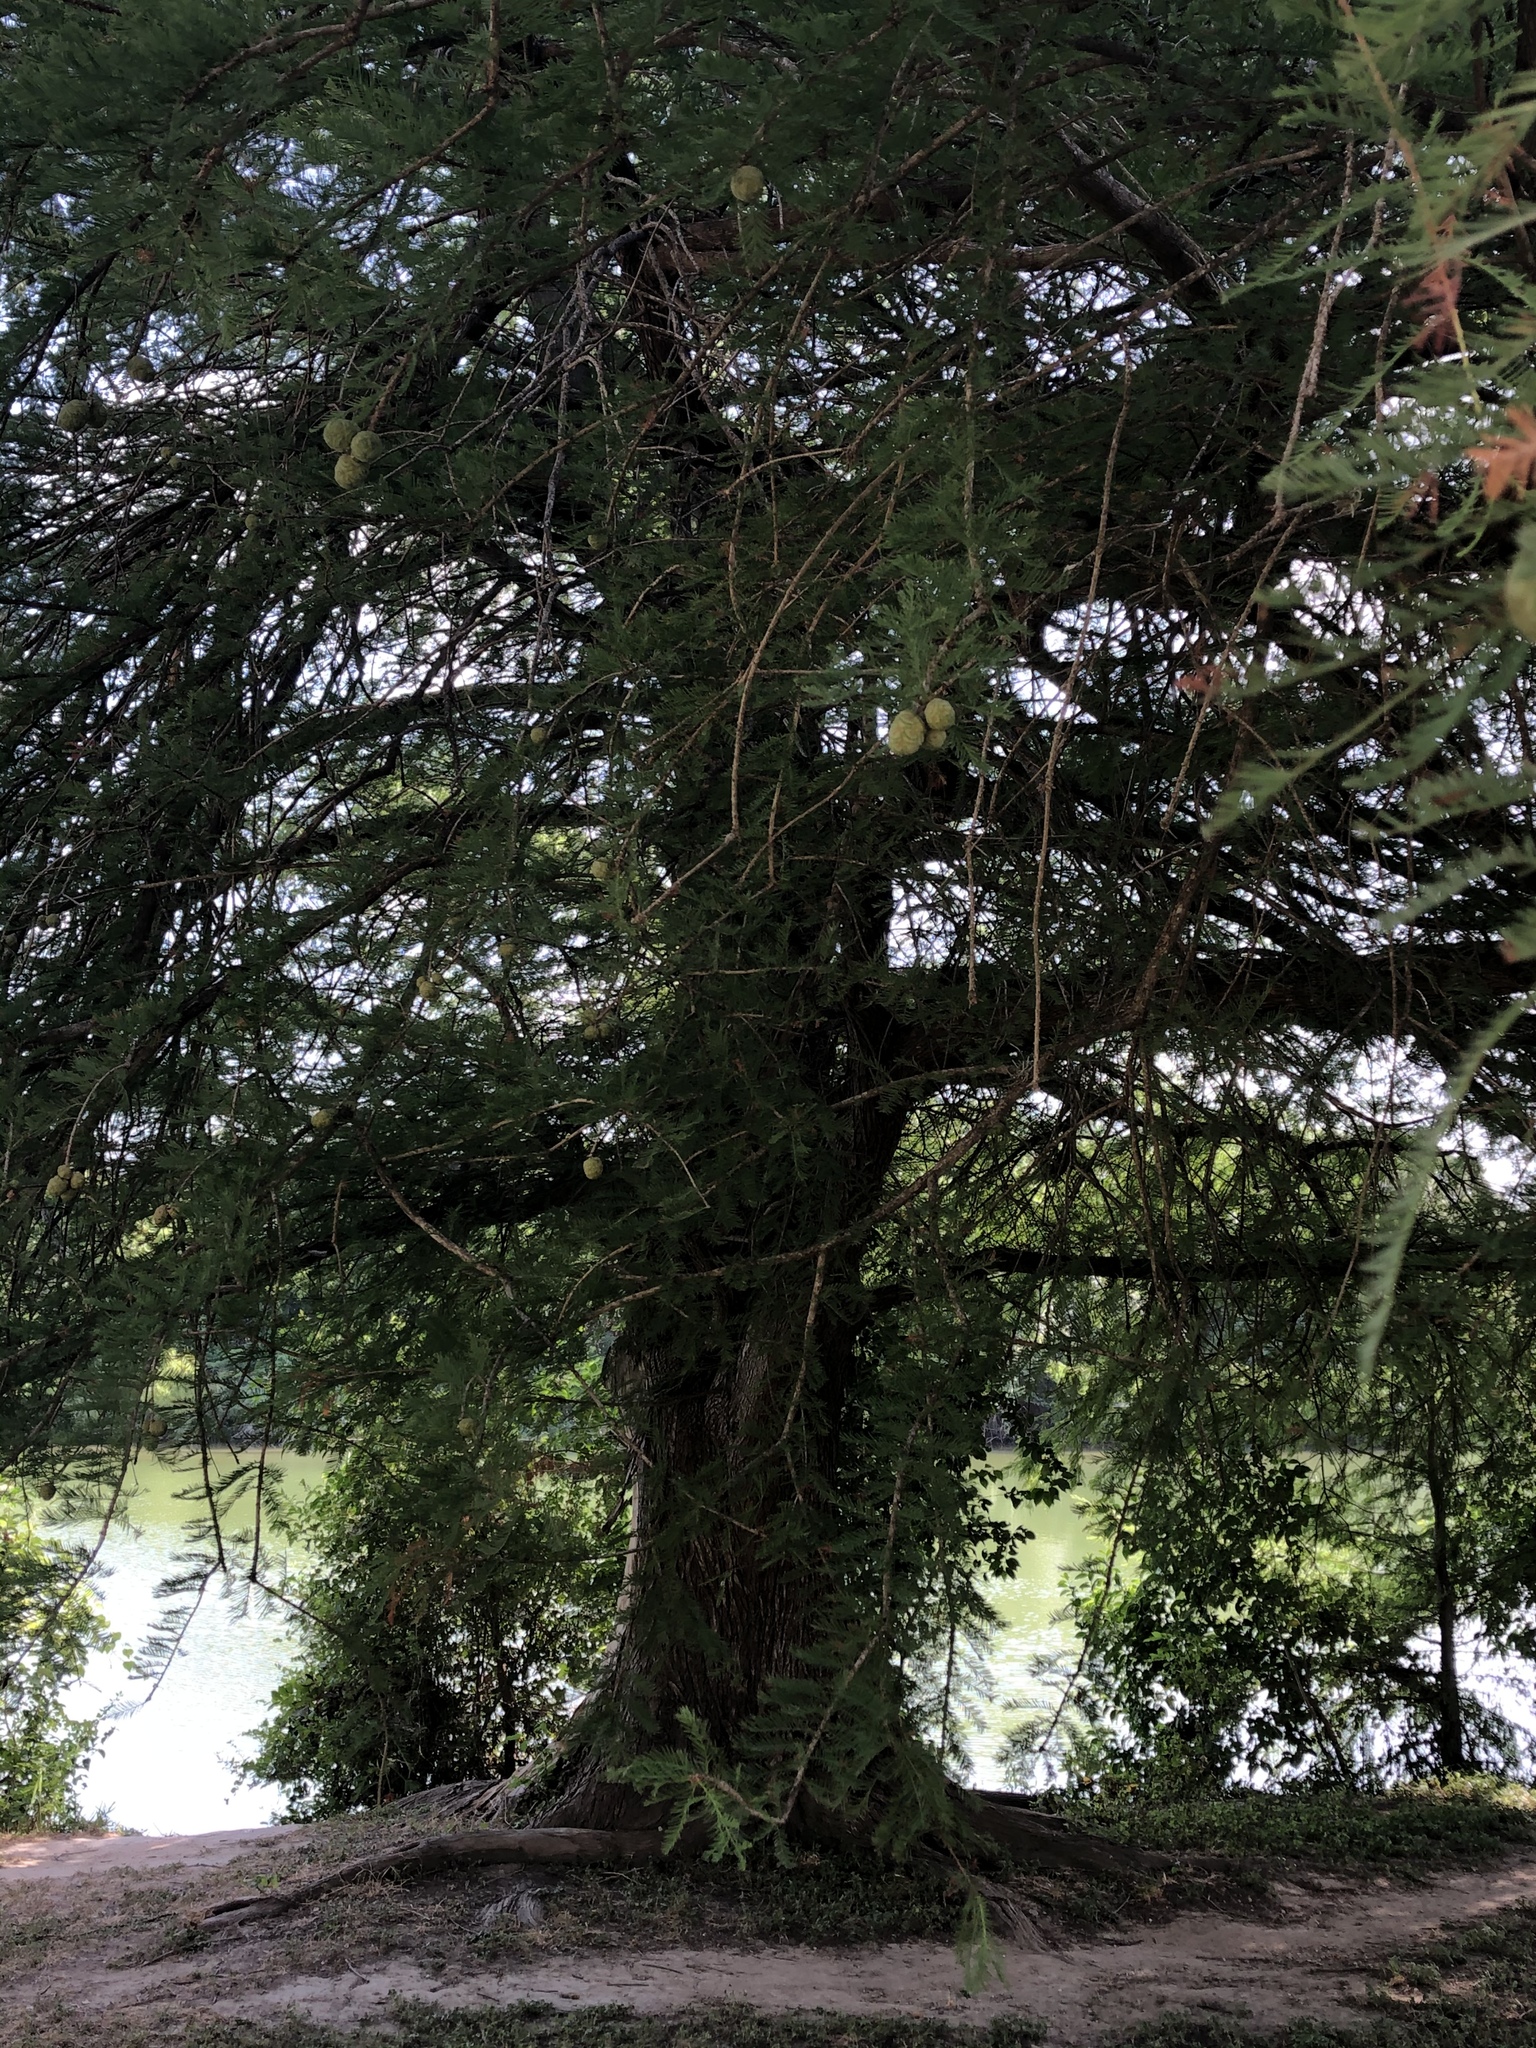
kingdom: Plantae
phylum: Tracheophyta
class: Pinopsida
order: Pinales
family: Cupressaceae
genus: Taxodium
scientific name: Taxodium distichum
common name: Bald cypress
